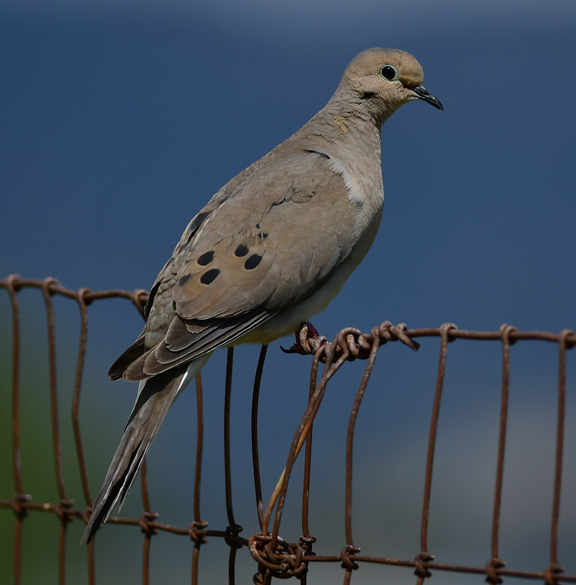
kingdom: Animalia
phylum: Chordata
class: Aves
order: Columbiformes
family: Columbidae
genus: Zenaida
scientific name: Zenaida macroura
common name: Mourning dove
